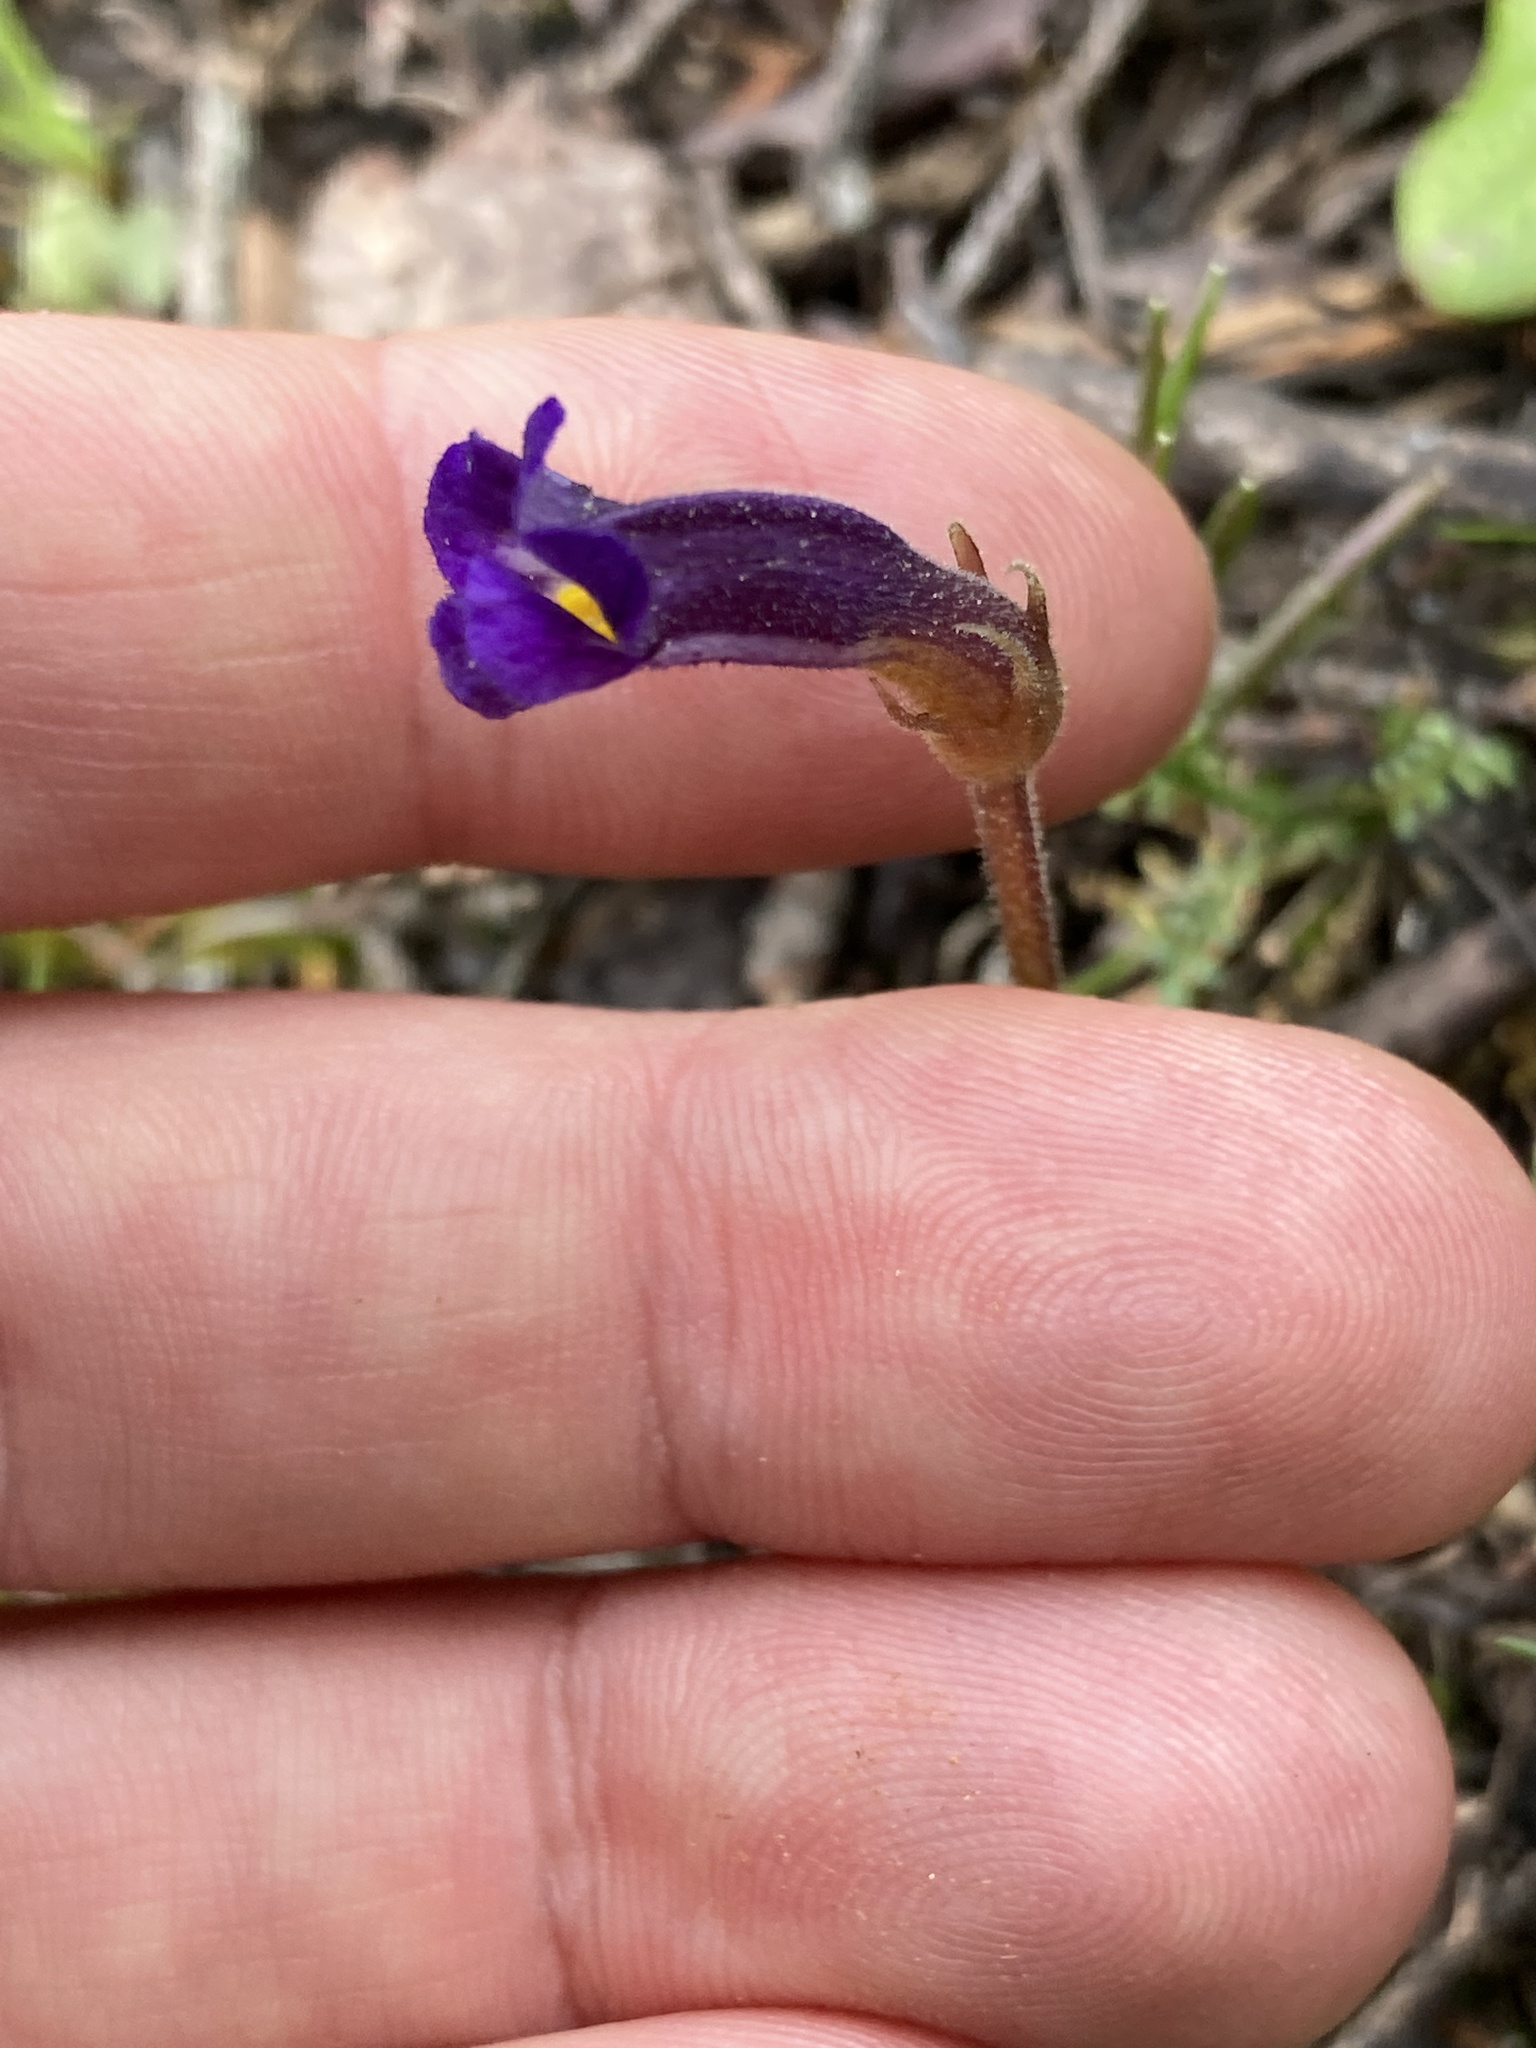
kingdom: Plantae
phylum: Tracheophyta
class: Magnoliopsida
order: Lamiales
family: Orobanchaceae
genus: Aphyllon
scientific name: Aphyllon uniflorum
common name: One-flowered broomrape
